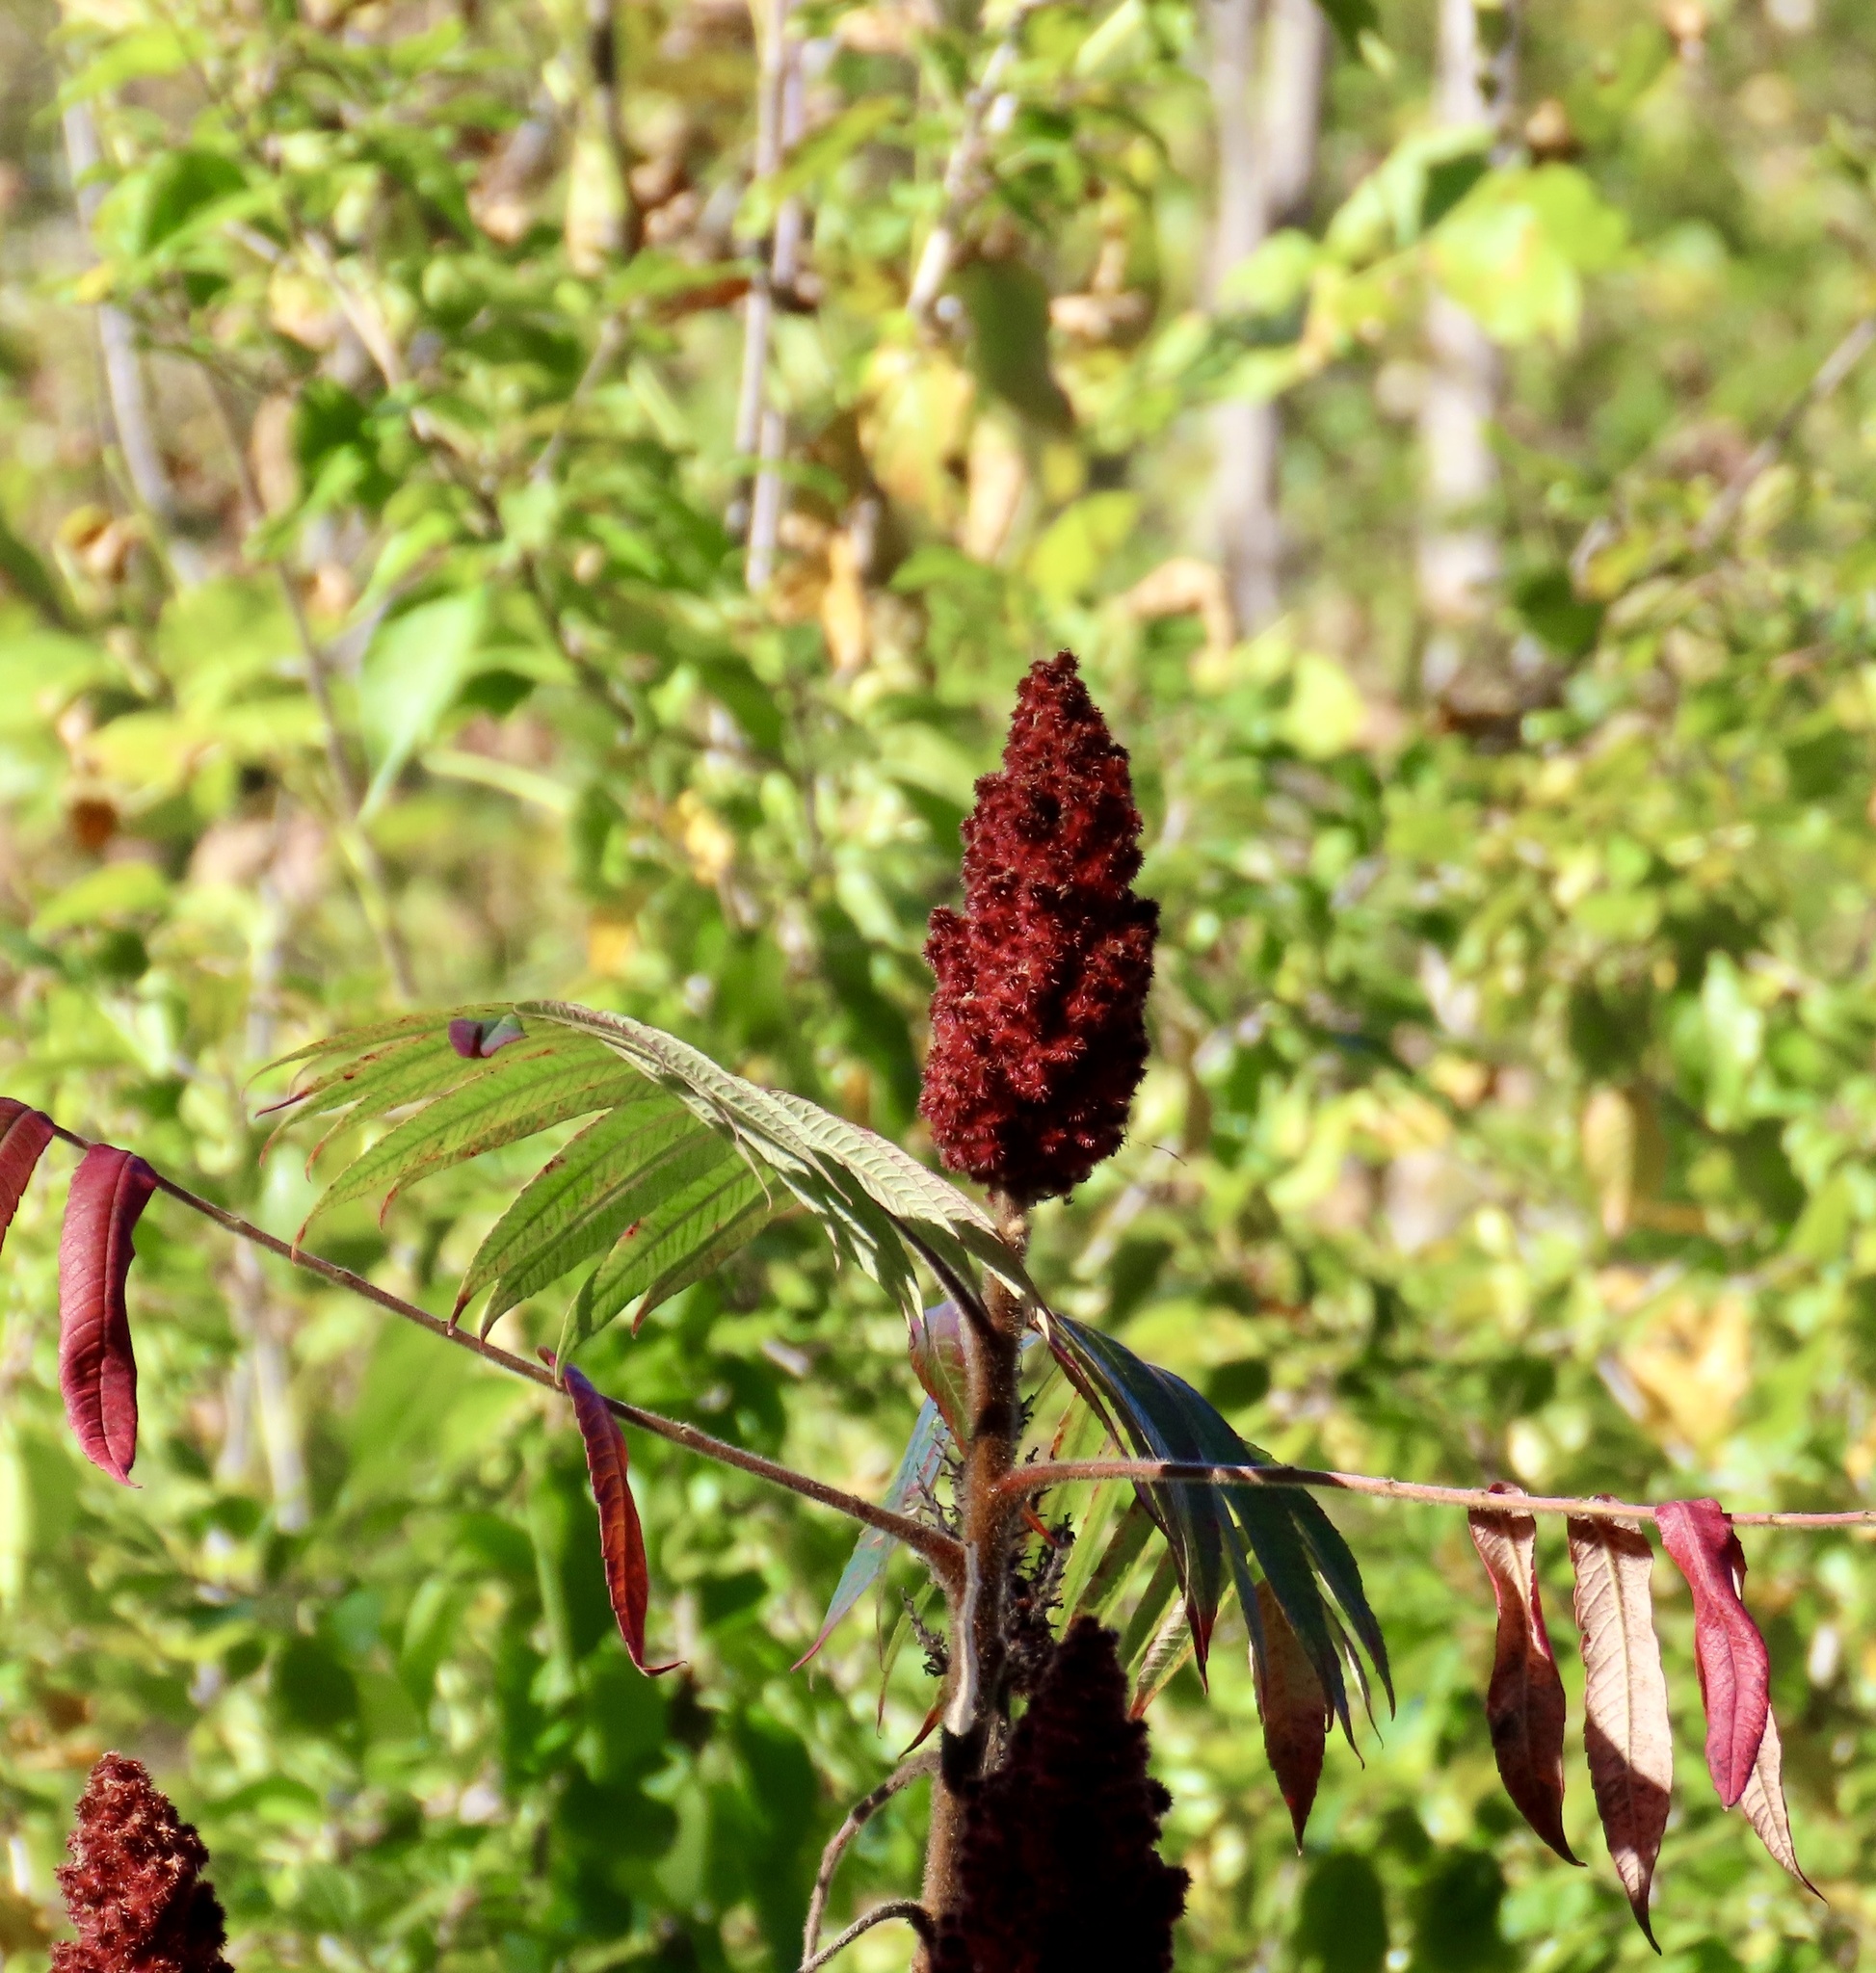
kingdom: Plantae
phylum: Tracheophyta
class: Magnoliopsida
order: Sapindales
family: Anacardiaceae
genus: Rhus
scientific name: Rhus typhina
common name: Staghorn sumac
